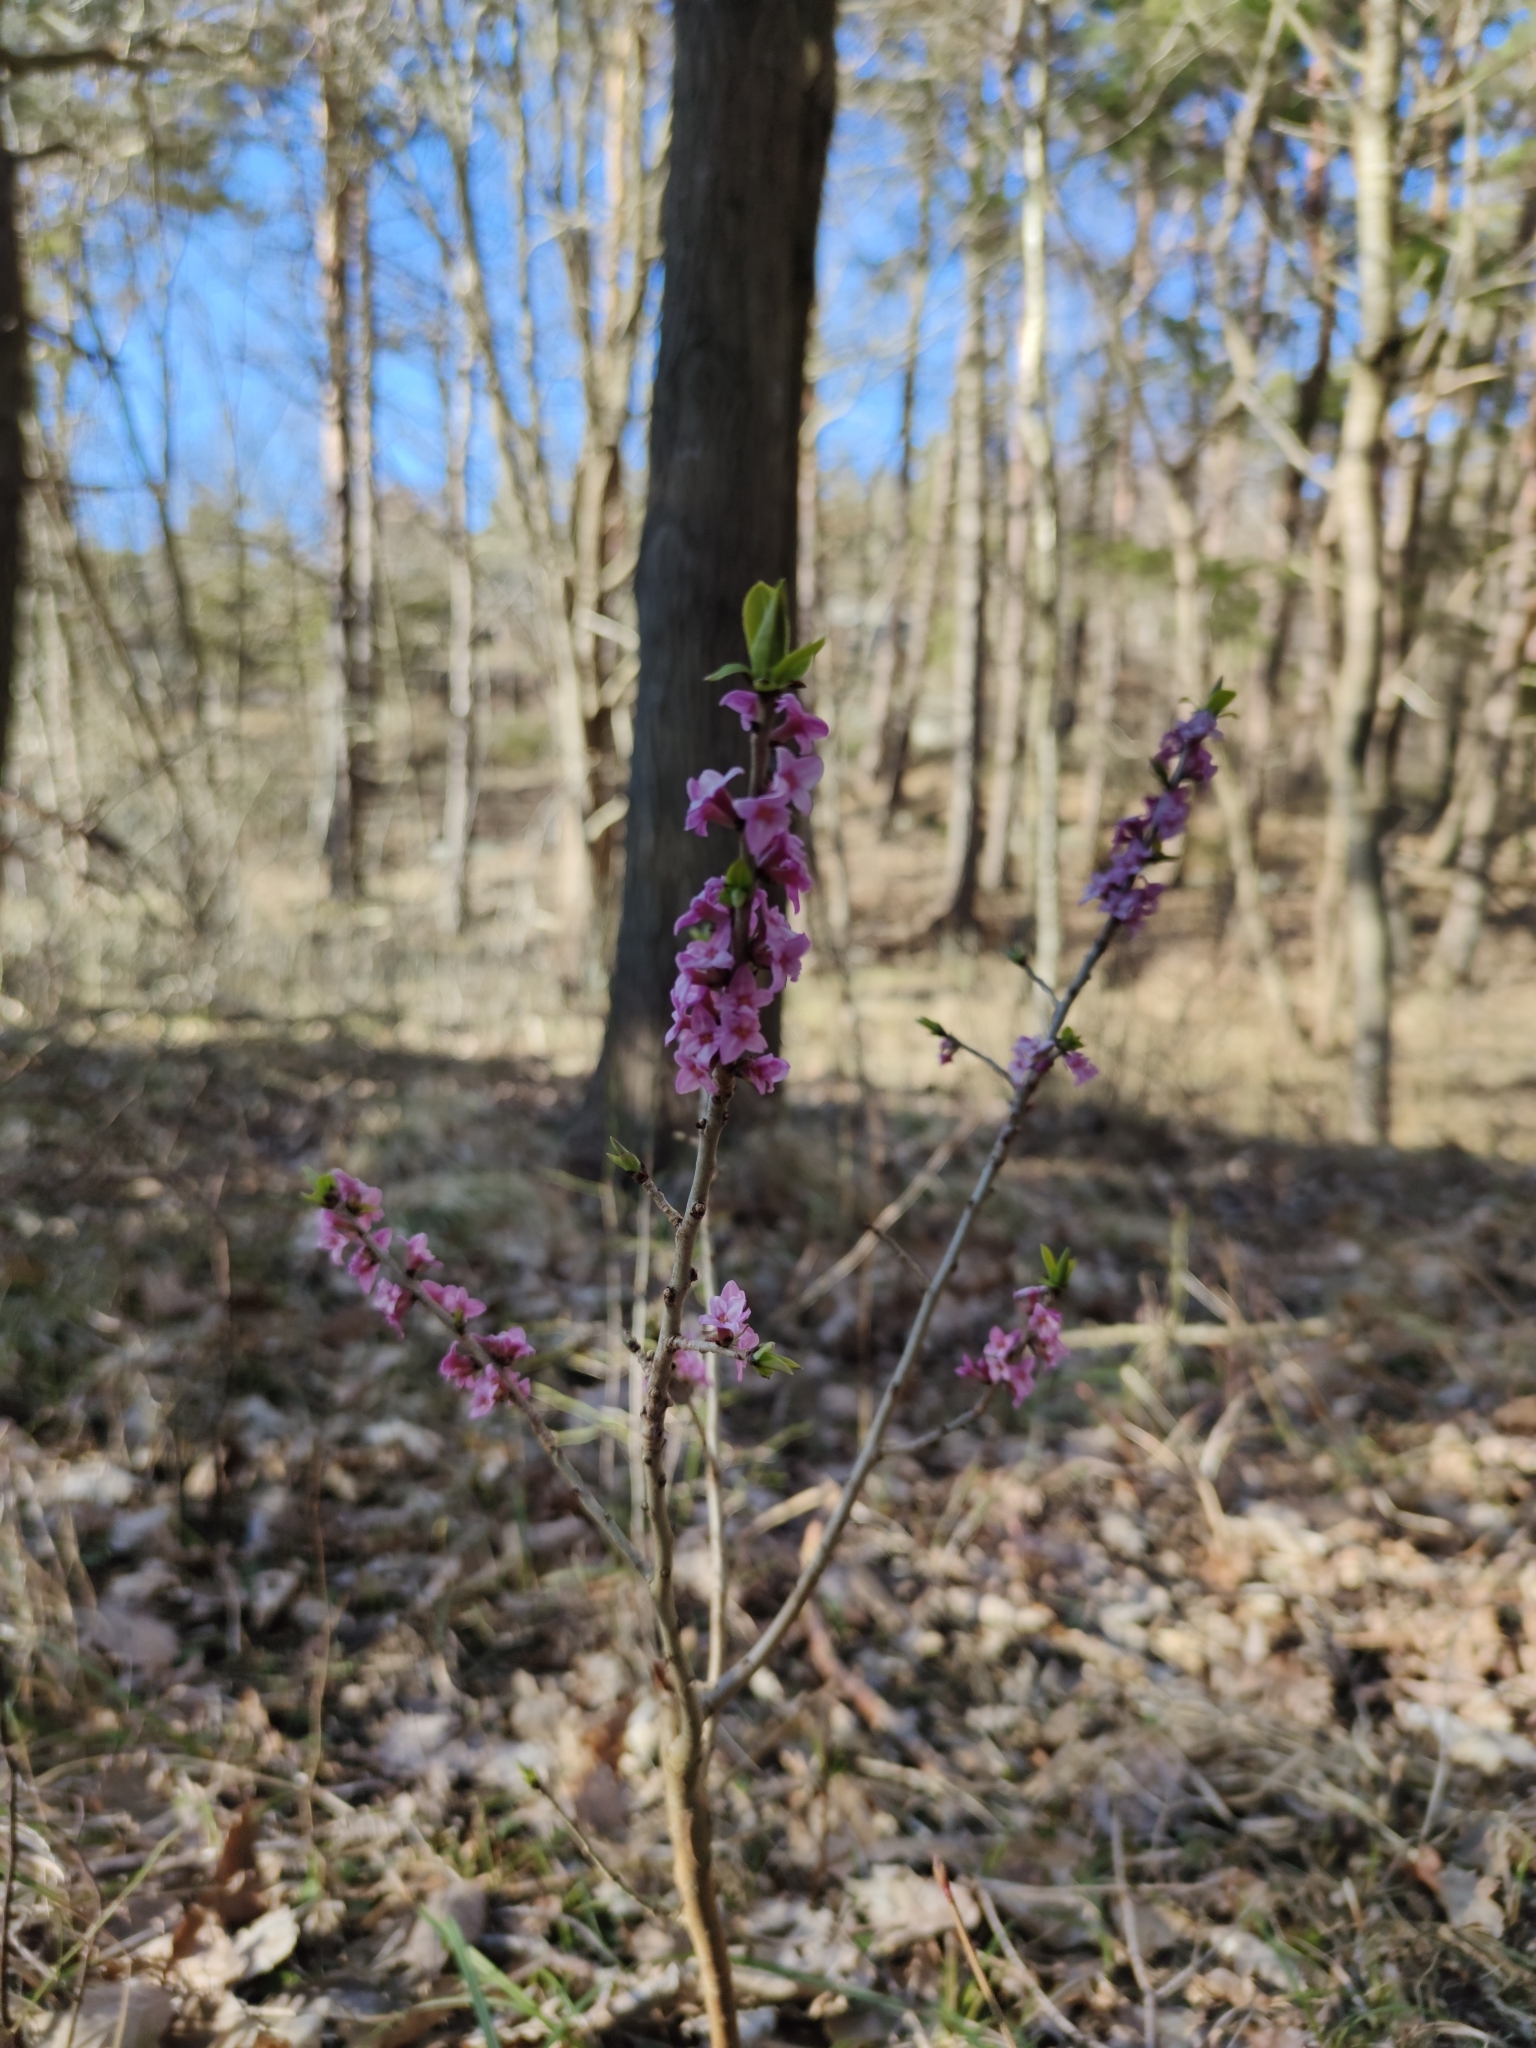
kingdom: Plantae
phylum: Tracheophyta
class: Magnoliopsida
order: Malvales
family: Thymelaeaceae
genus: Daphne
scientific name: Daphne mezereum
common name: Mezereon
